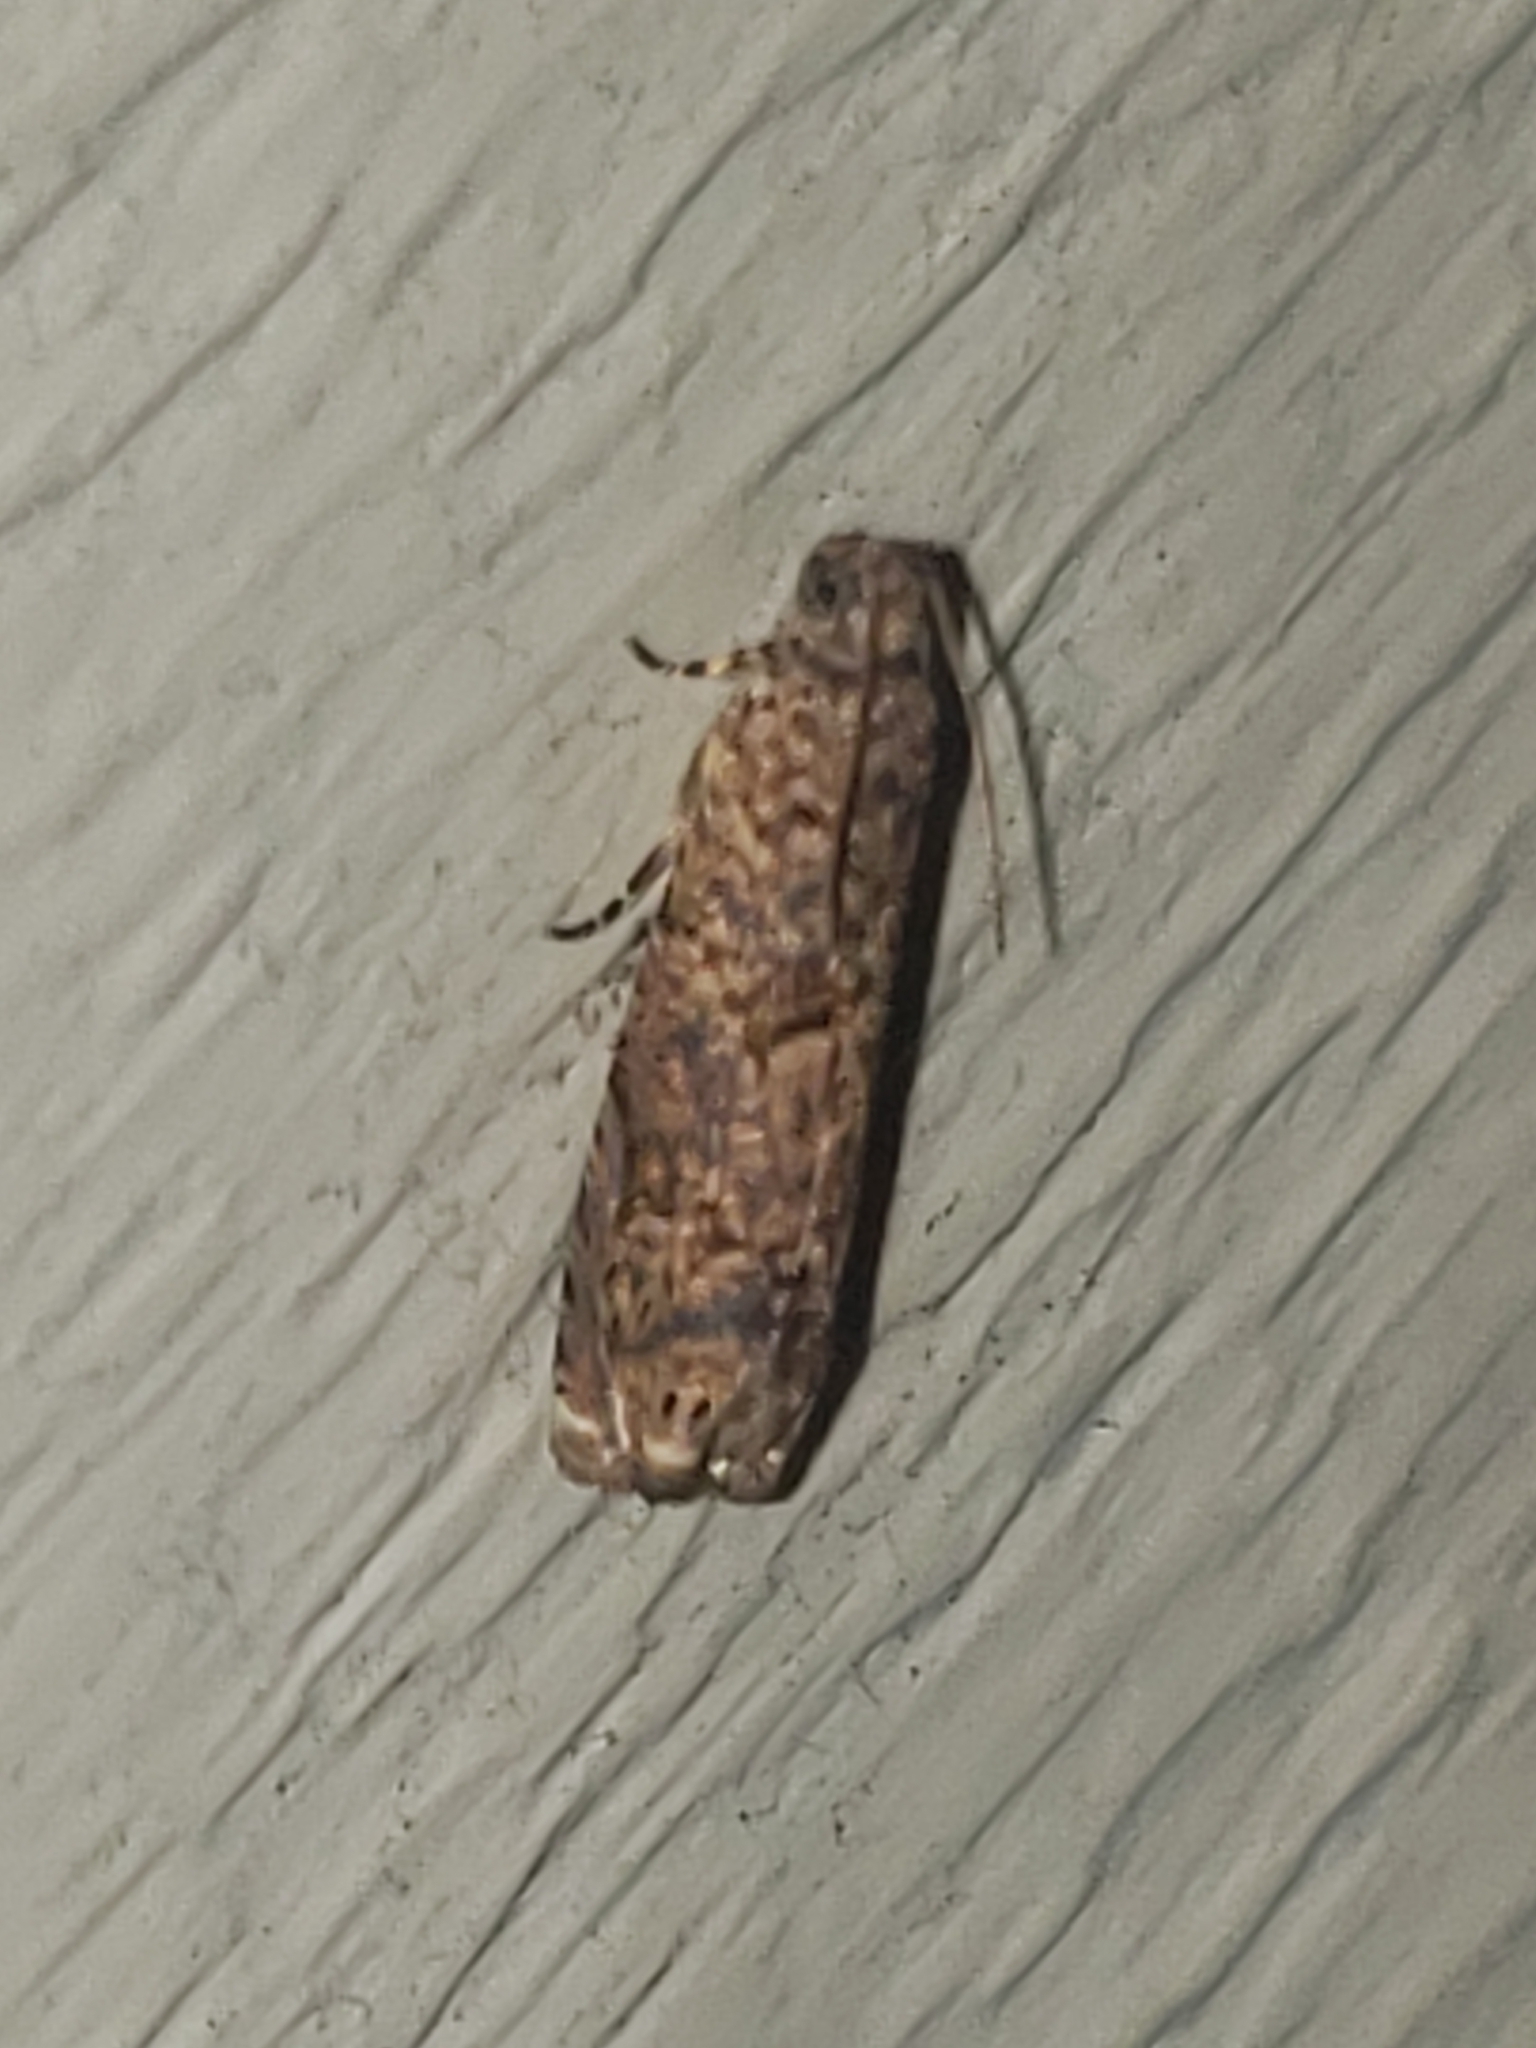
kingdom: Animalia
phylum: Arthropoda
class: Insecta
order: Lepidoptera
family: Tortricidae
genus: Episimus
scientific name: Episimus argutana
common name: Sumac leaftier moth
